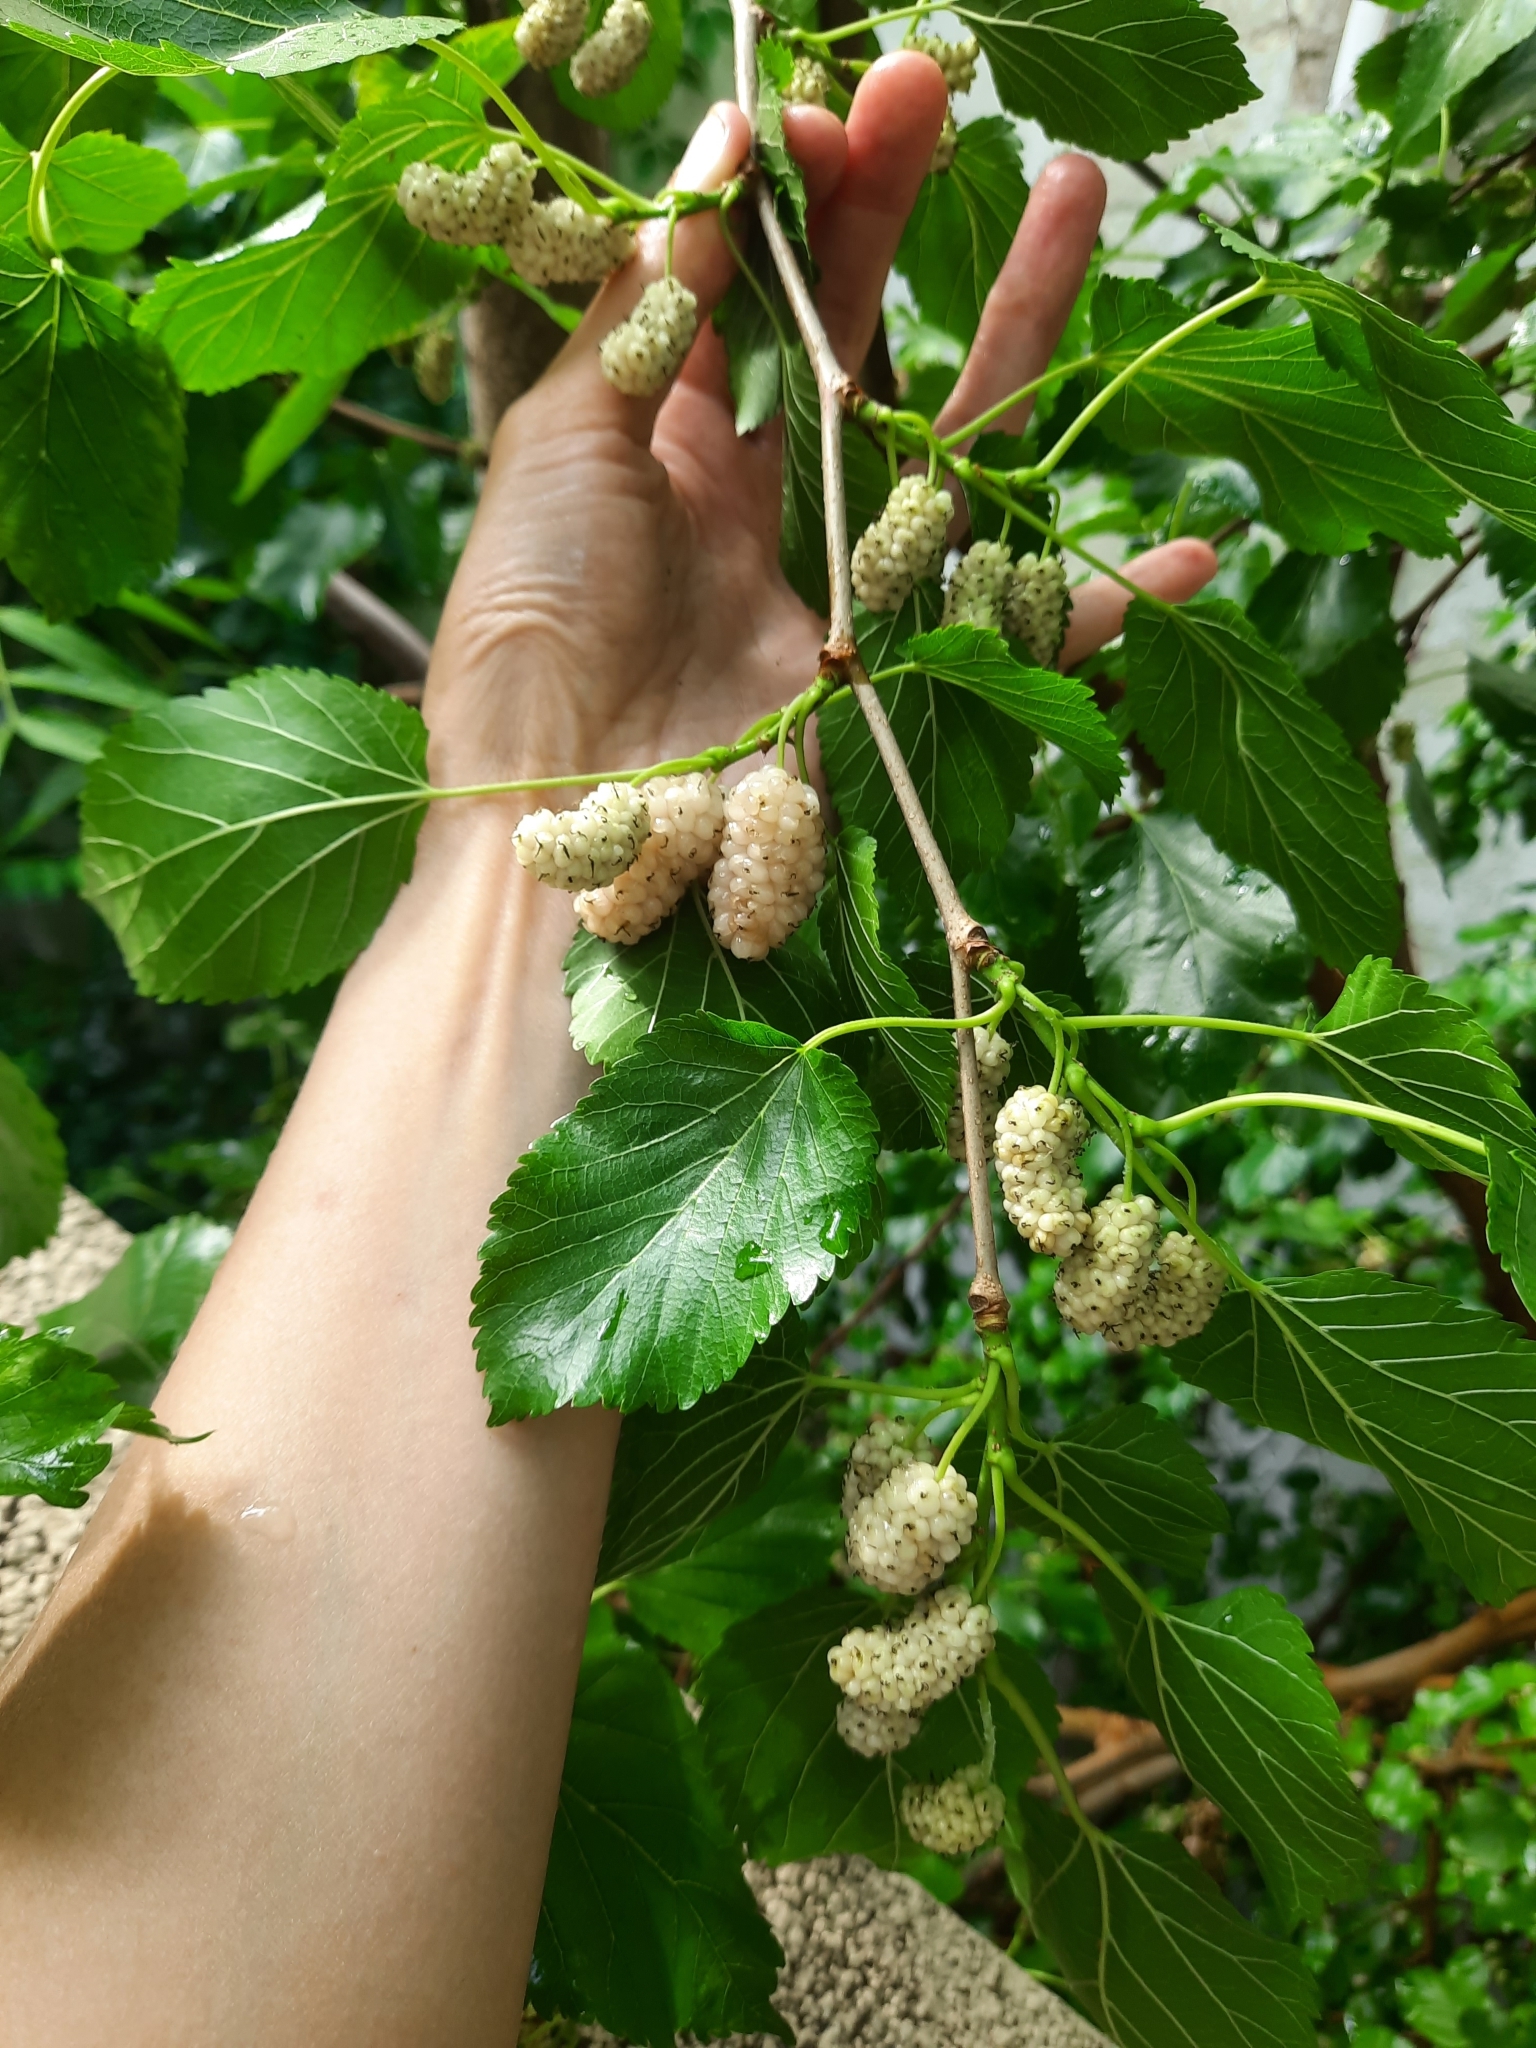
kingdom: Plantae
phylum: Tracheophyta
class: Magnoliopsida
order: Rosales
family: Moraceae
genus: Morus
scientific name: Morus alba
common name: White mulberry
